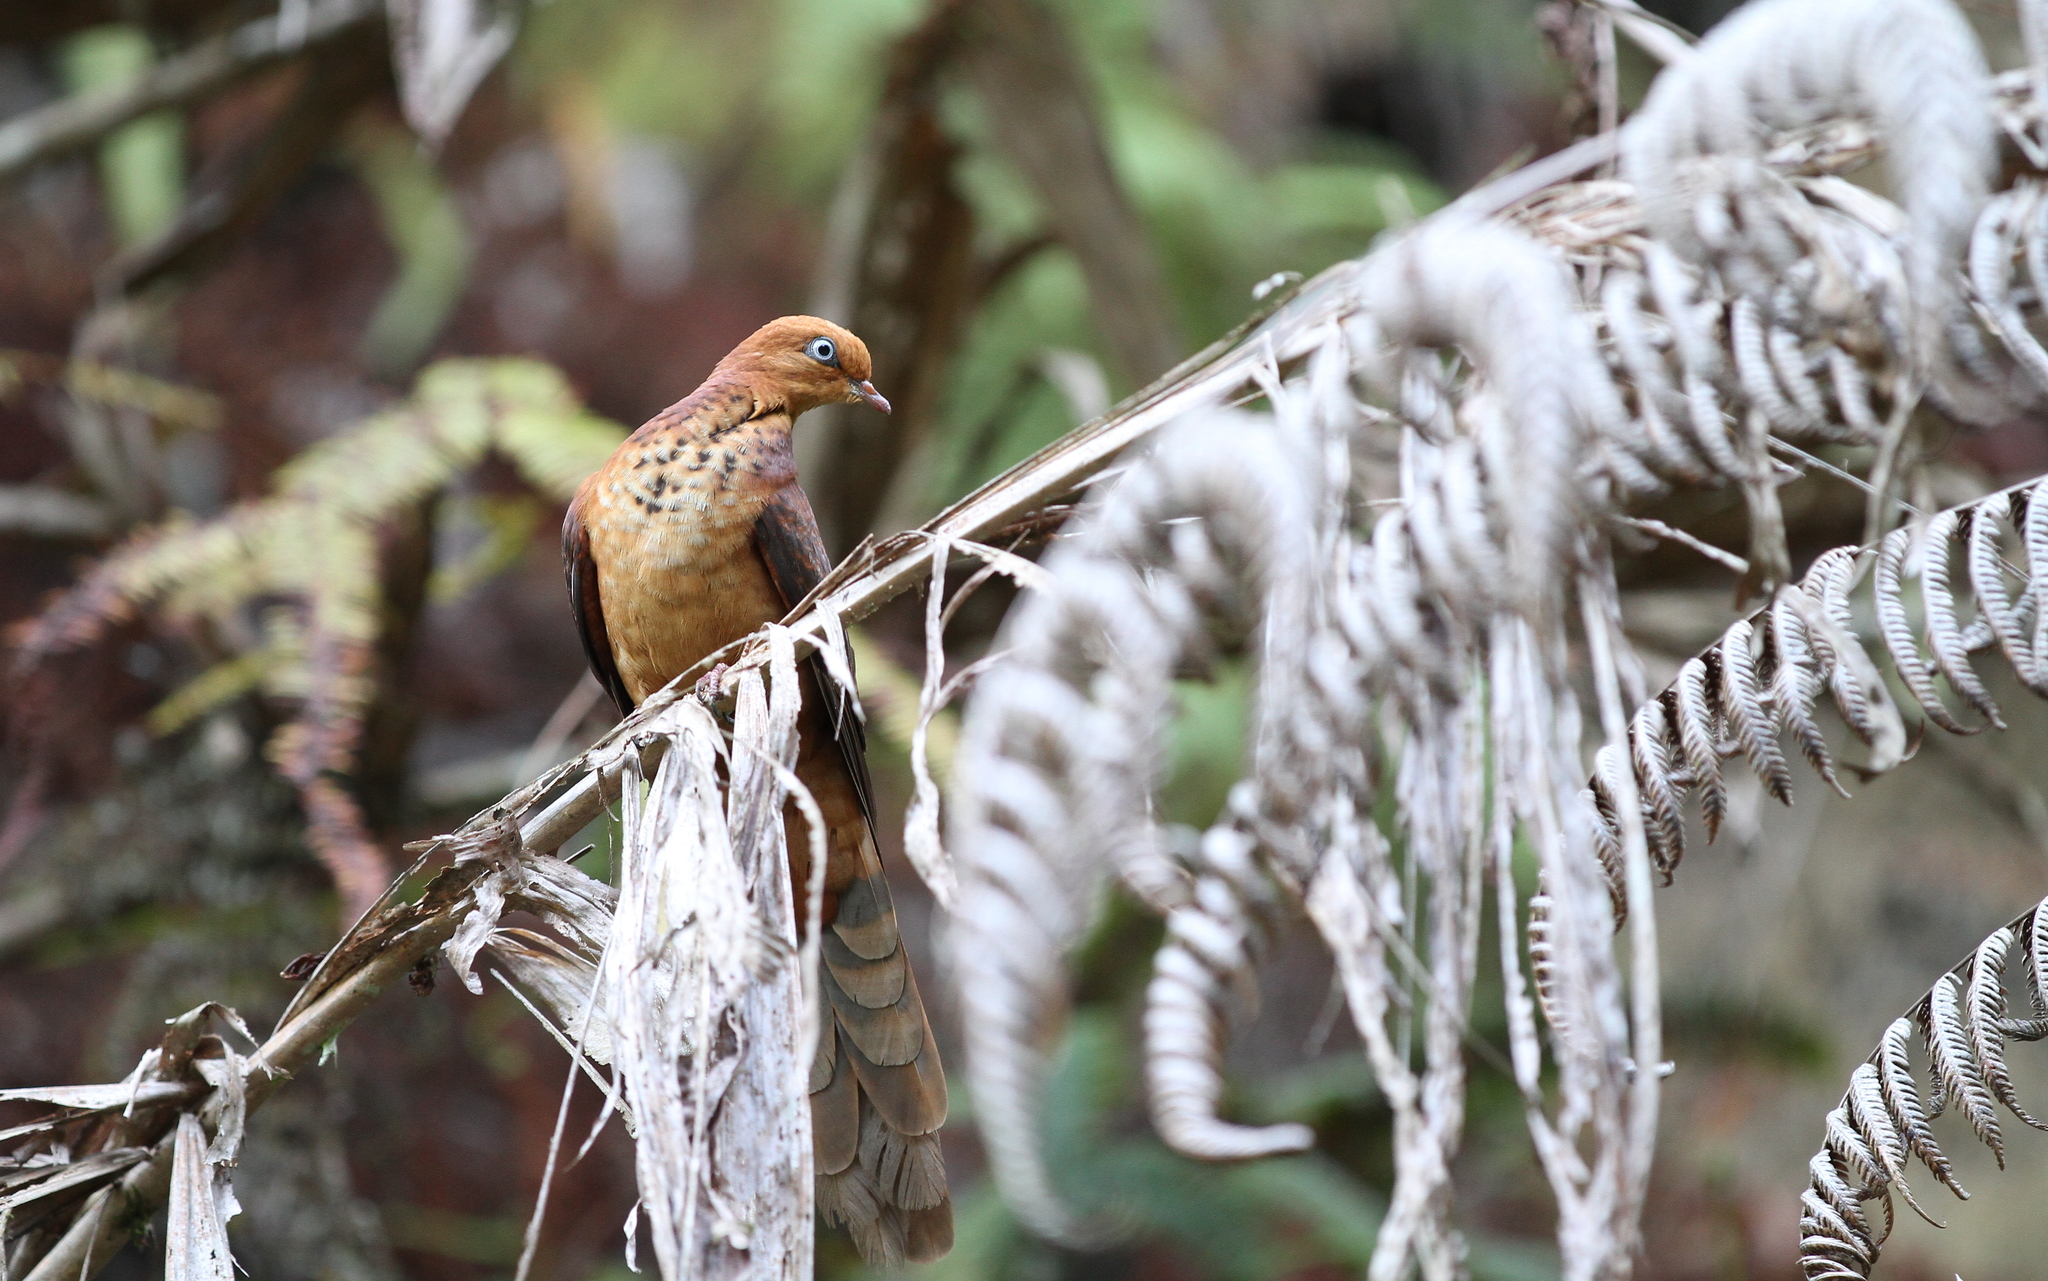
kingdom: Animalia
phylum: Chordata
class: Aves
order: Columbiformes
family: Columbidae
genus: Macropygia
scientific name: Macropygia ruficeps
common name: Little cuckoo-dove
